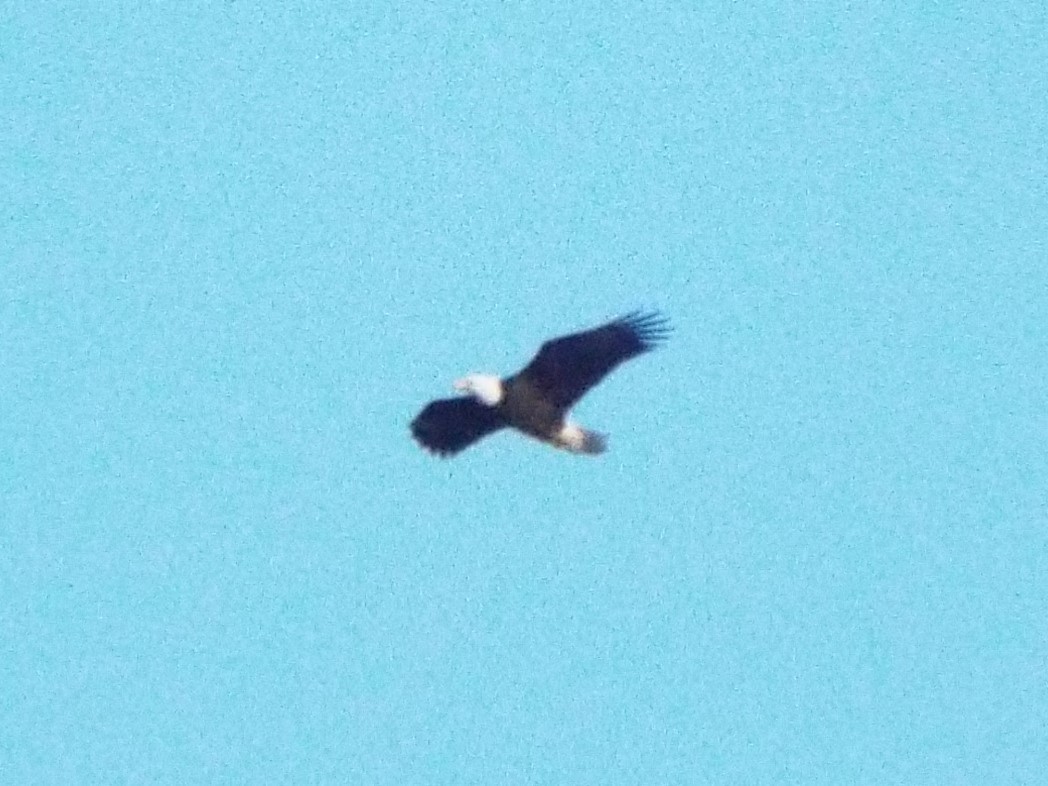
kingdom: Animalia
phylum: Chordata
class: Aves
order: Accipitriformes
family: Accipitridae
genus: Haliaeetus
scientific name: Haliaeetus leucocephalus
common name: Bald eagle
